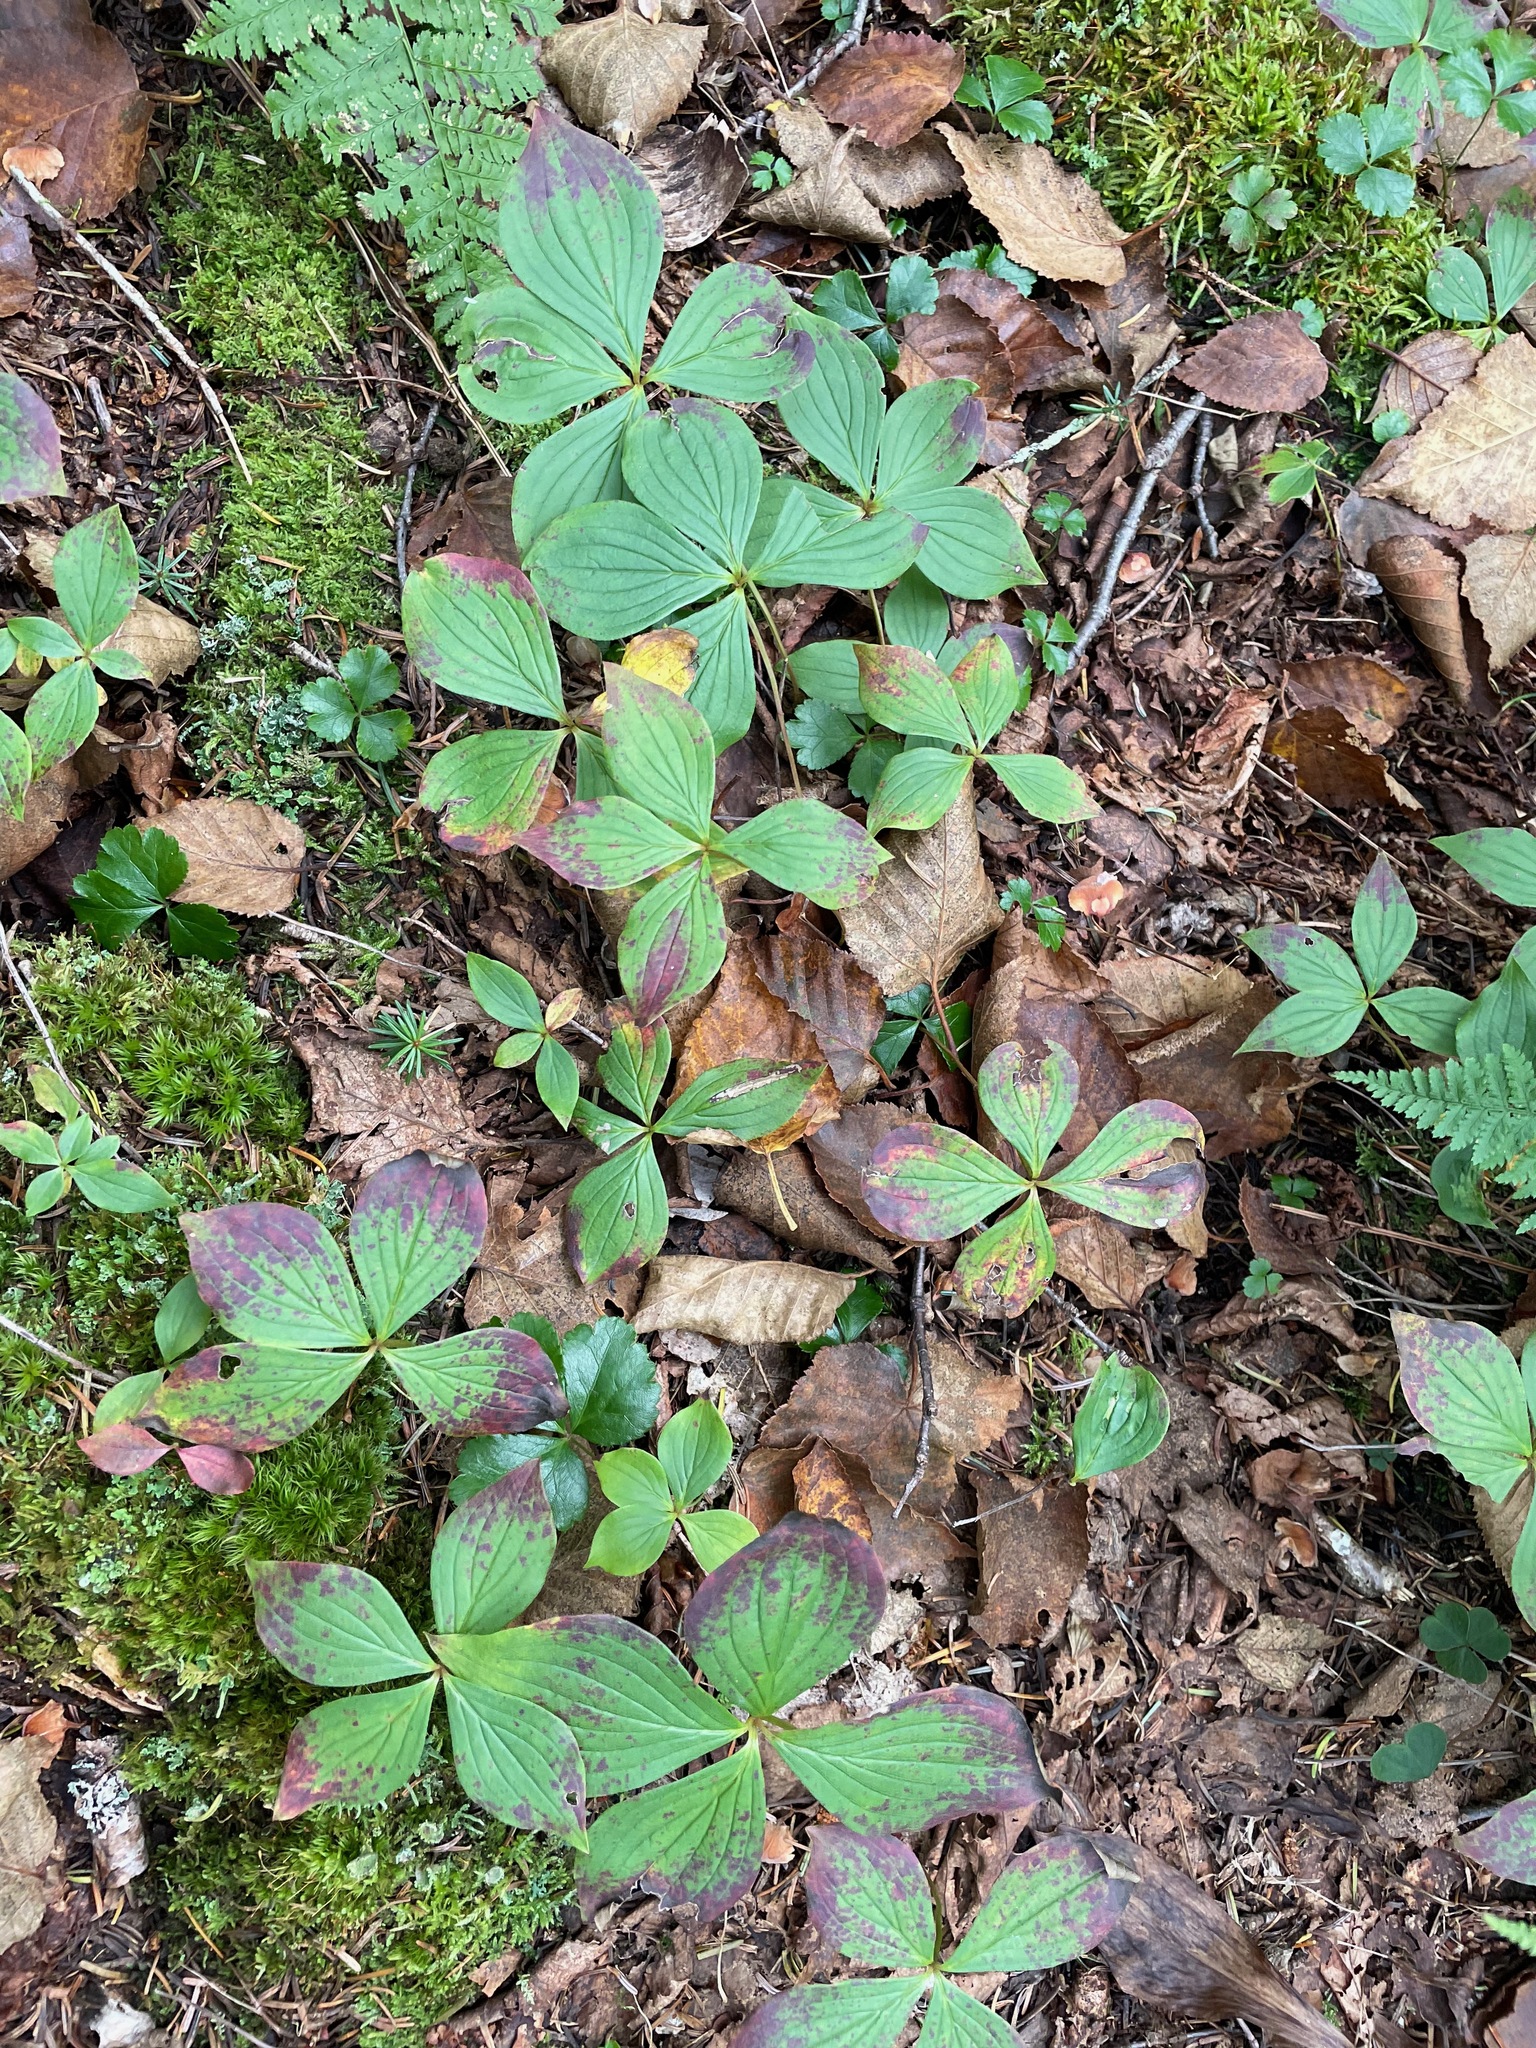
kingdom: Plantae
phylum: Tracheophyta
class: Magnoliopsida
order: Cornales
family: Cornaceae
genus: Cornus
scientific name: Cornus canadensis
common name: Creeping dogwood
